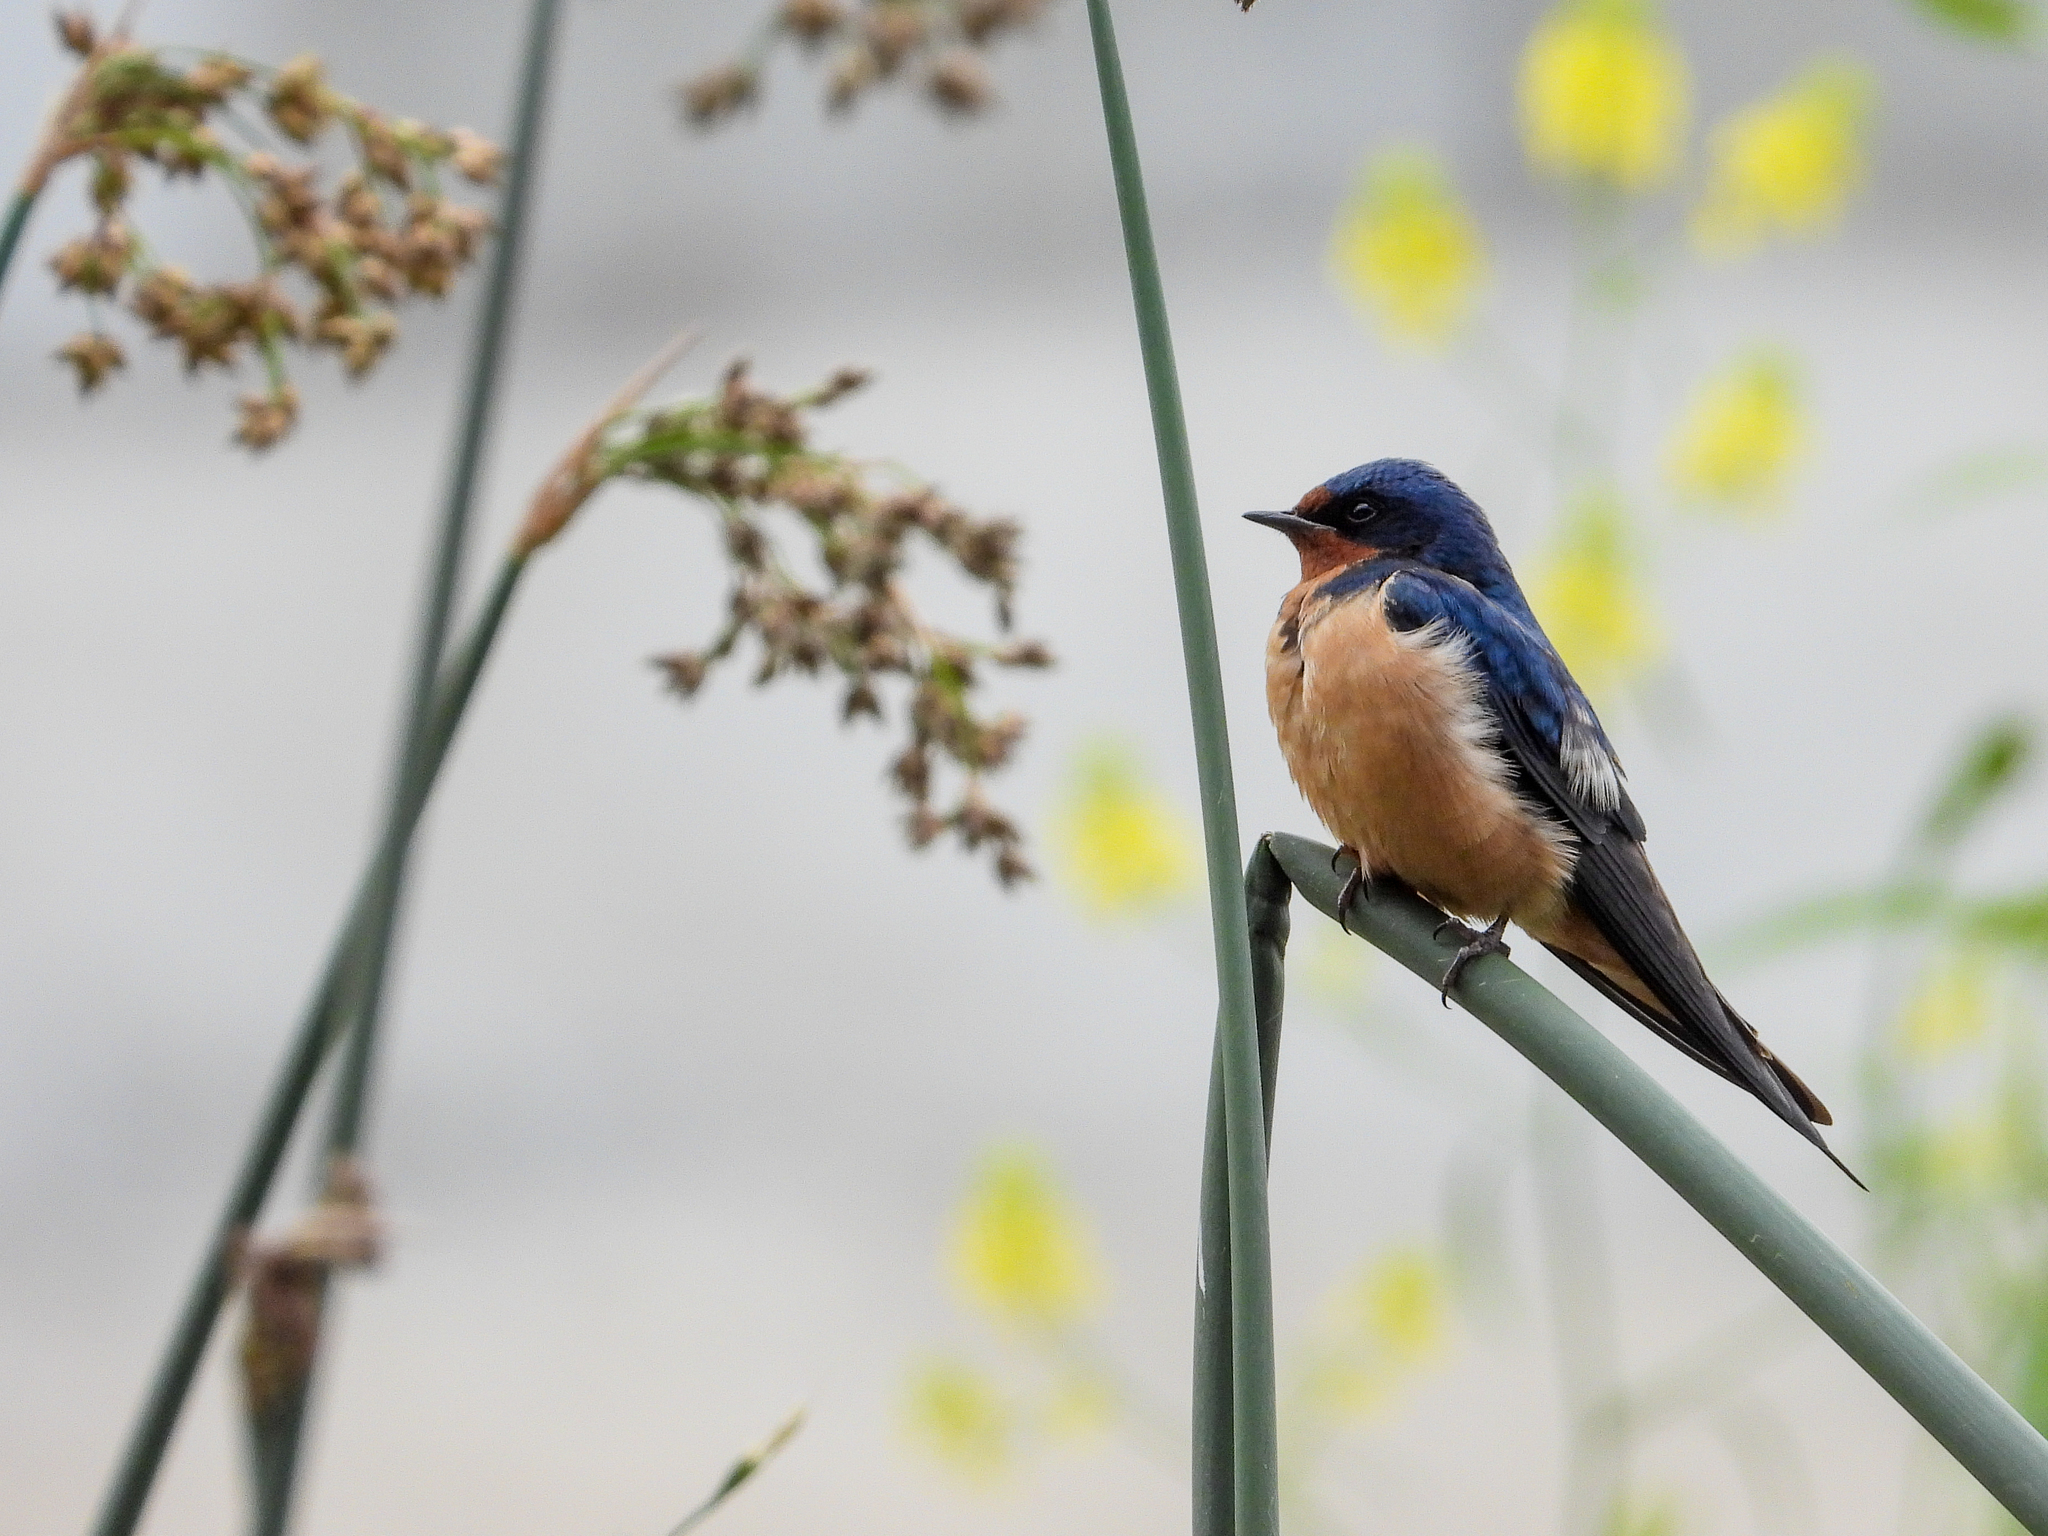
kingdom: Animalia
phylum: Chordata
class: Aves
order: Passeriformes
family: Hirundinidae
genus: Hirundo
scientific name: Hirundo rustica
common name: Barn swallow
